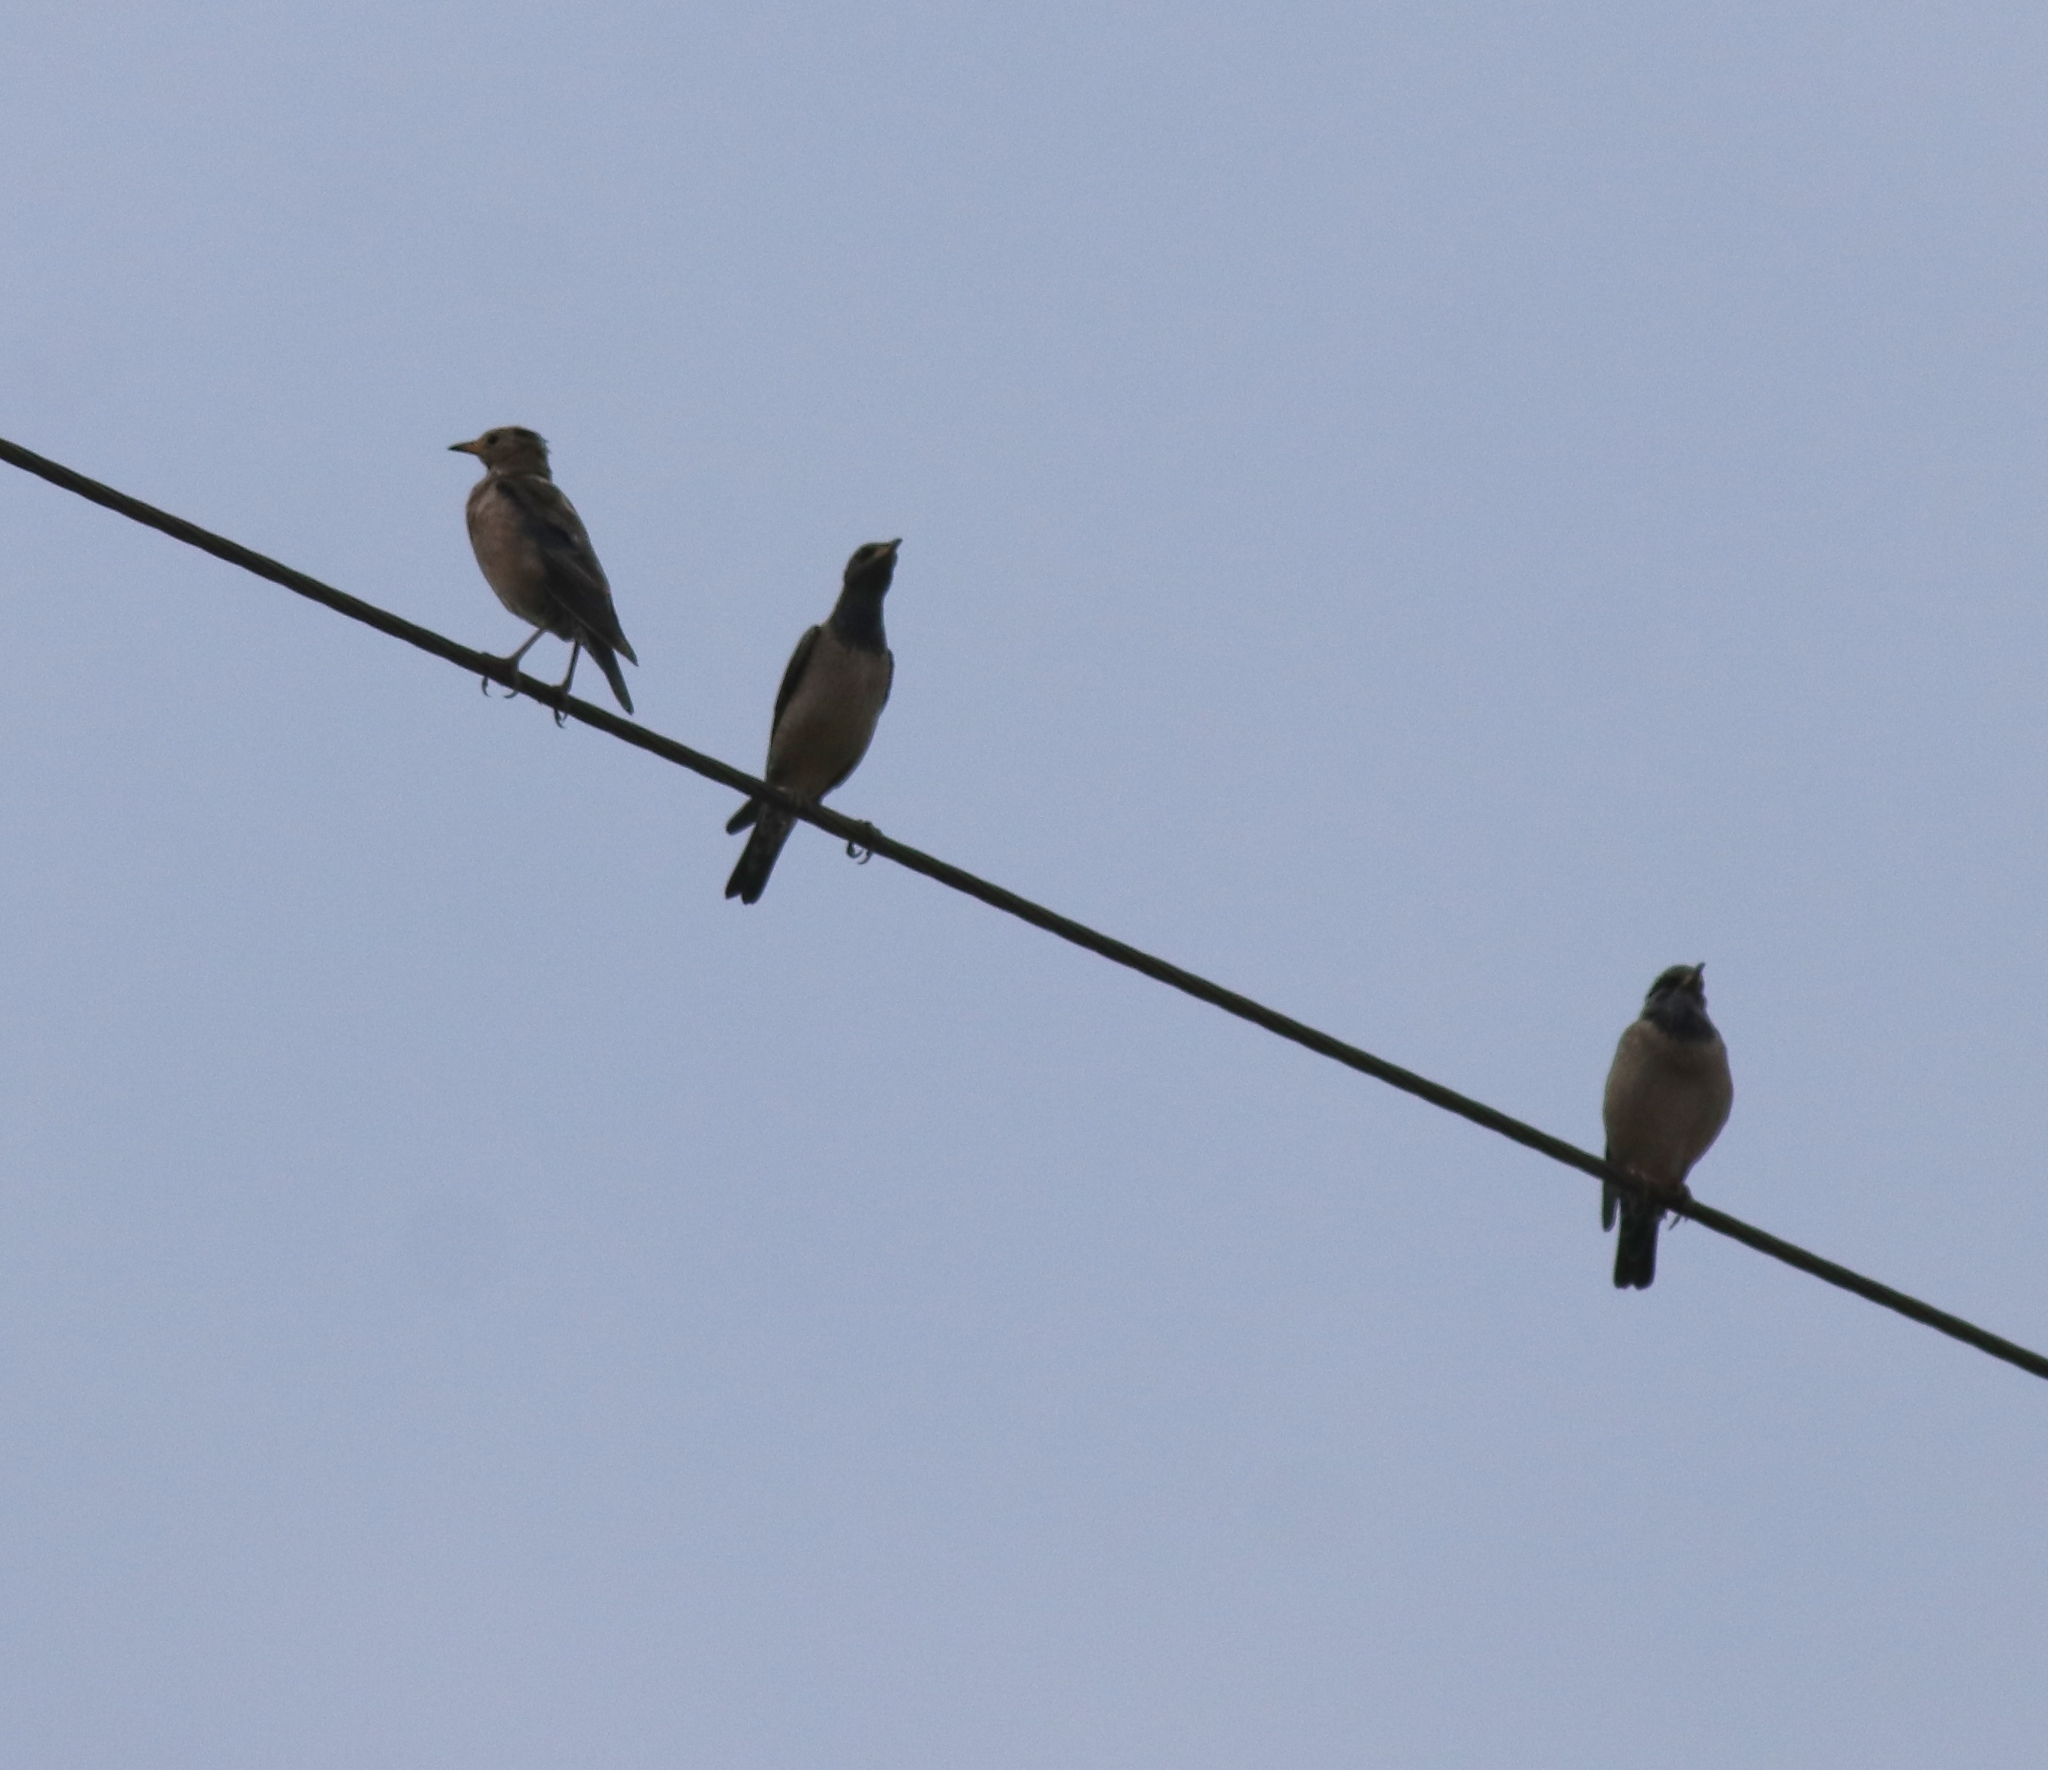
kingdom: Animalia
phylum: Chordata
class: Aves
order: Passeriformes
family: Sturnidae
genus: Pastor
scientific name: Pastor roseus
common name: Rosy starling
